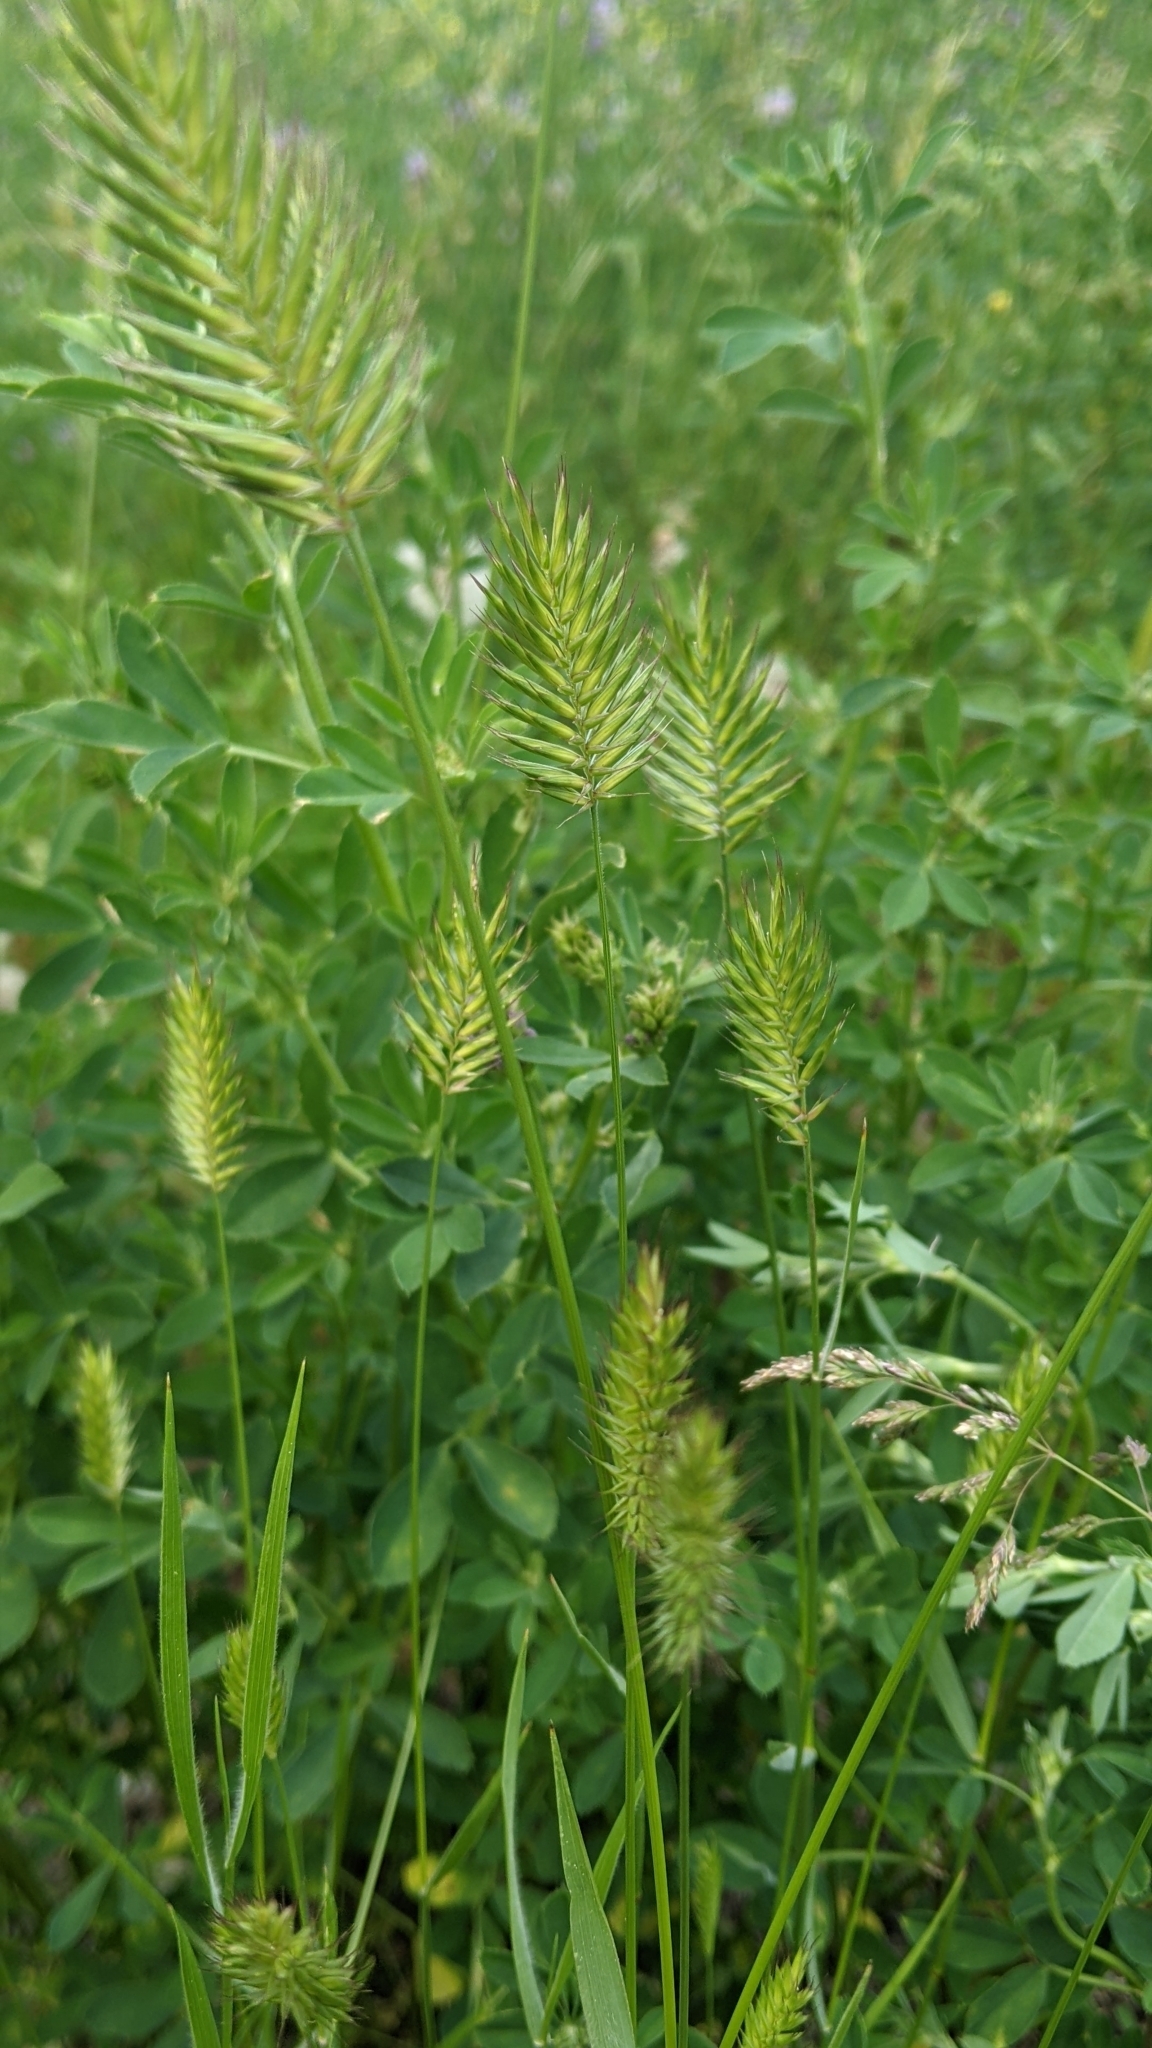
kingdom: Plantae
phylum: Tracheophyta
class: Liliopsida
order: Poales
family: Poaceae
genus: Agropyron
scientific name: Agropyron cristatum
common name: Crested wheatgrass
